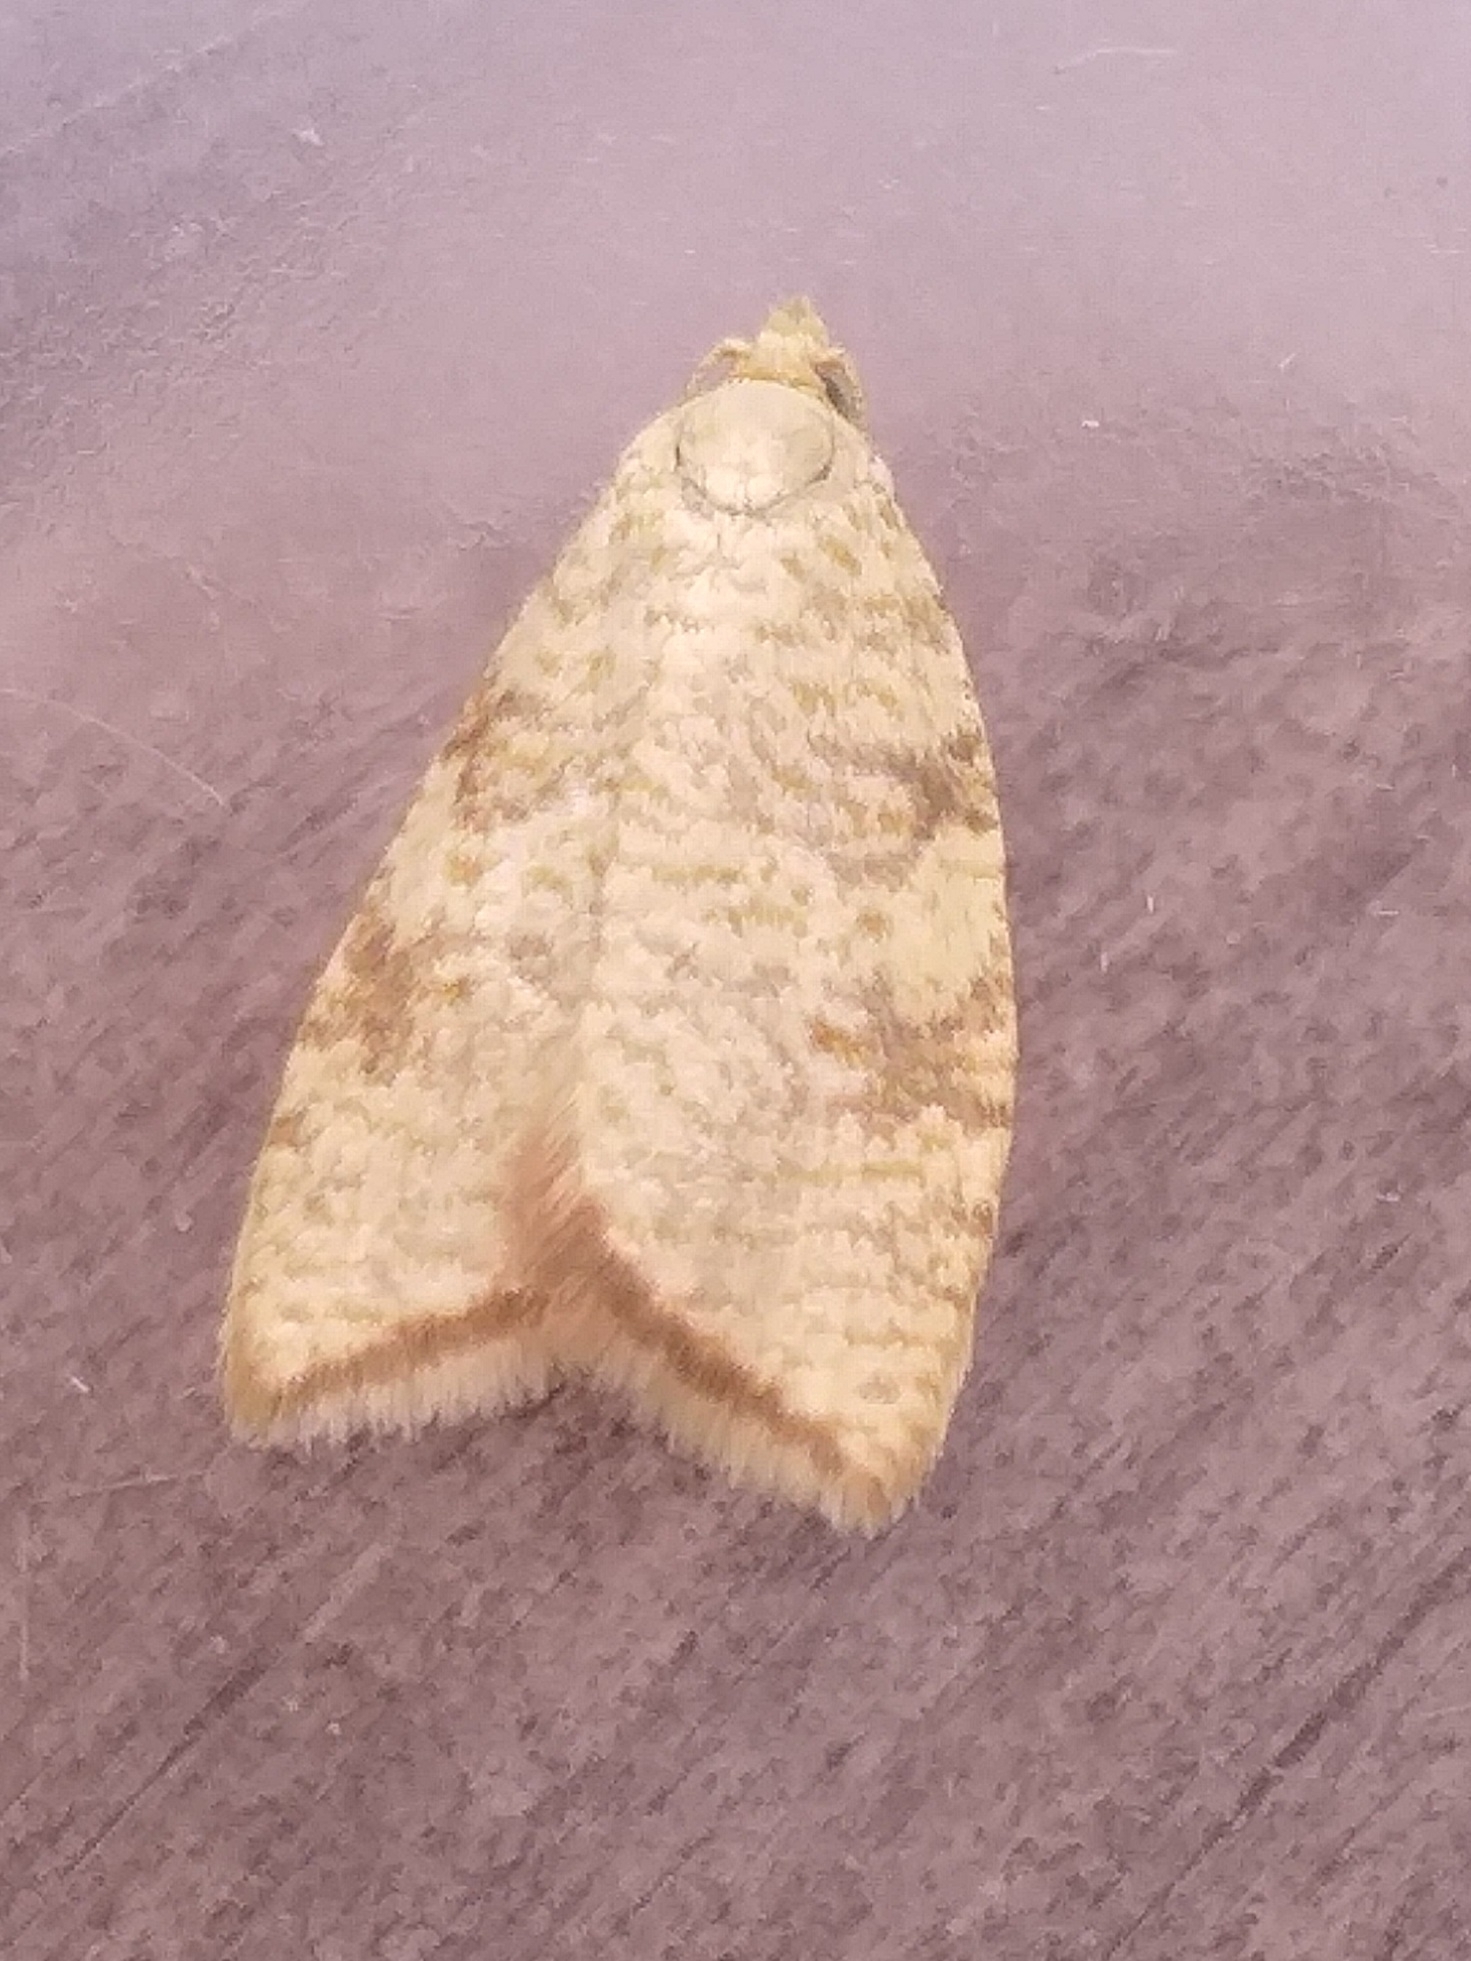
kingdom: Animalia
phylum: Arthropoda
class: Insecta
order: Lepidoptera
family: Tortricidae
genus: Aleimma
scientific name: Aleimma loeflingiana
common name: Yellow oak button
